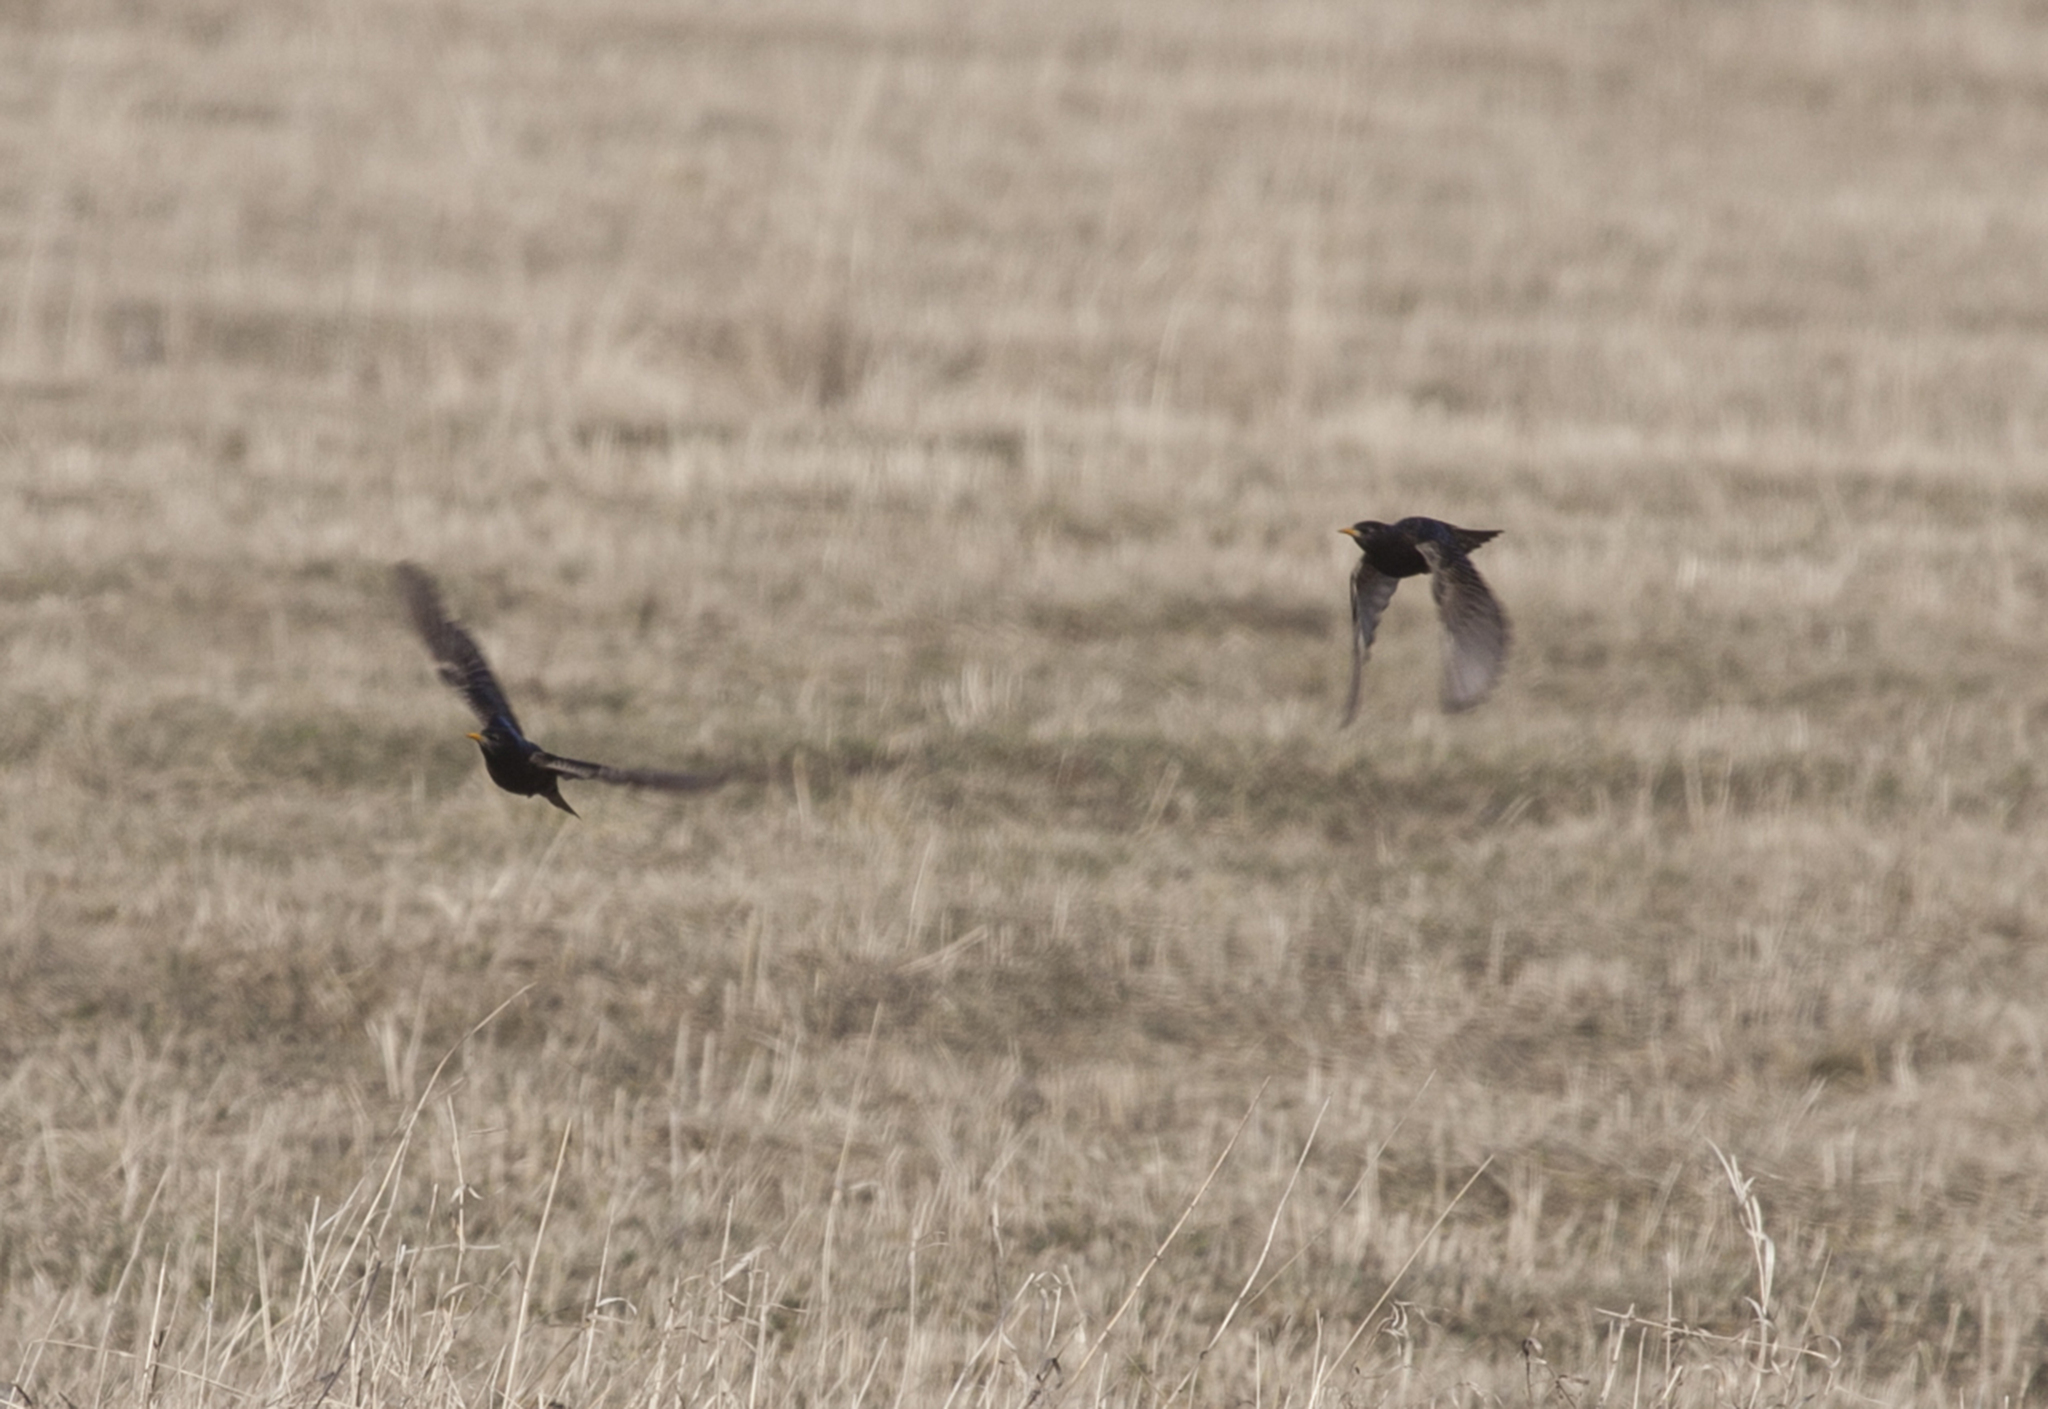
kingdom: Animalia
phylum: Chordata
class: Aves
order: Passeriformes
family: Sturnidae
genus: Sturnus
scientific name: Sturnus vulgaris
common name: Common starling
